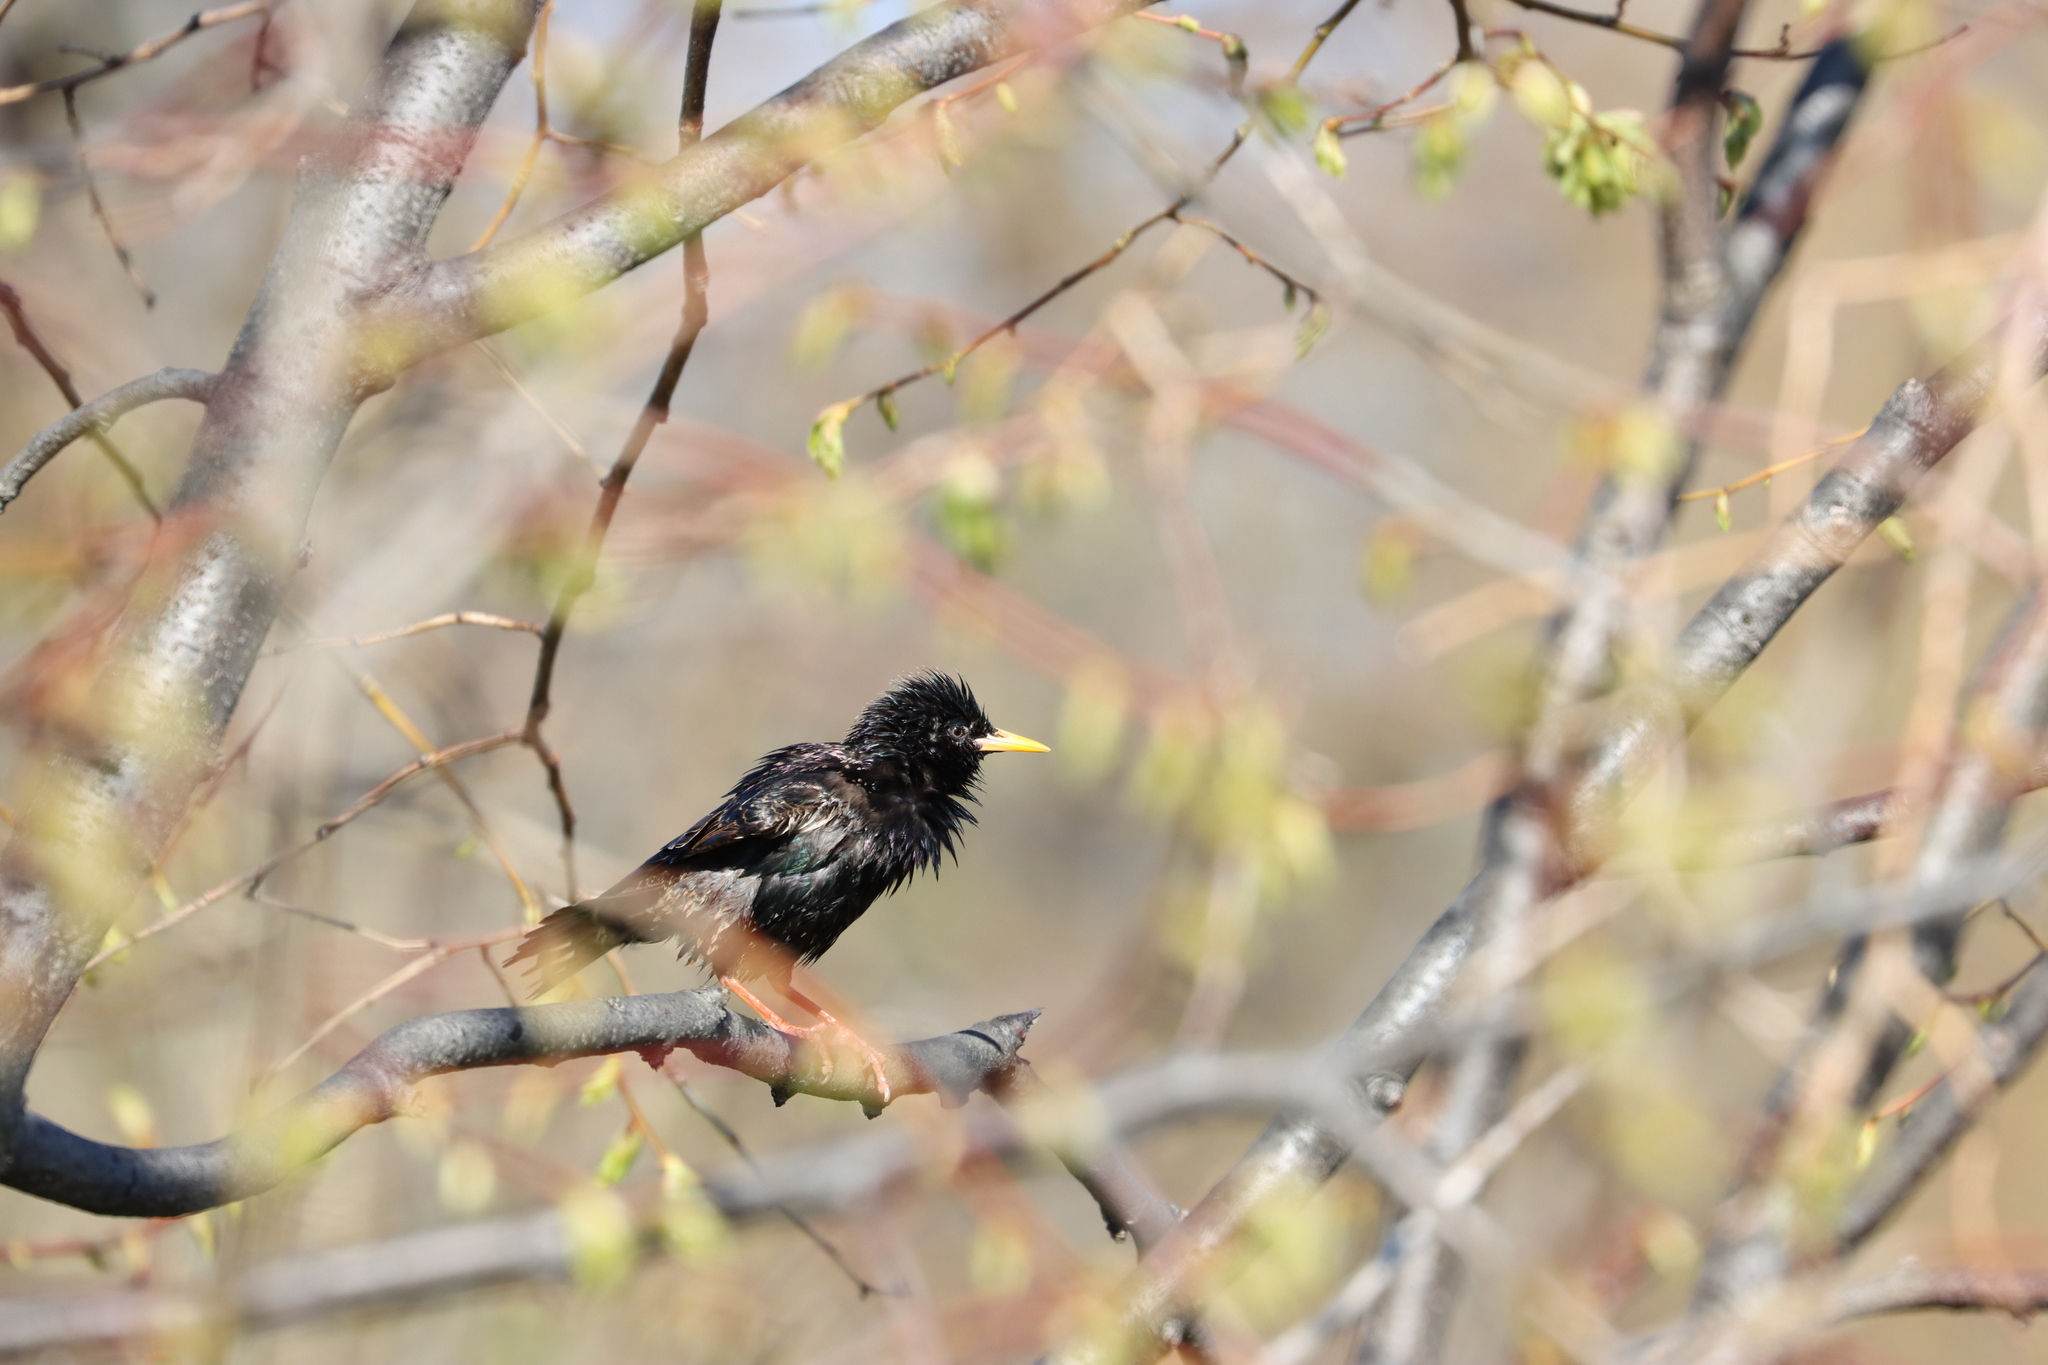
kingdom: Animalia
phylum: Chordata
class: Aves
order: Passeriformes
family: Sturnidae
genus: Sturnus
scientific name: Sturnus vulgaris
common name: Common starling
